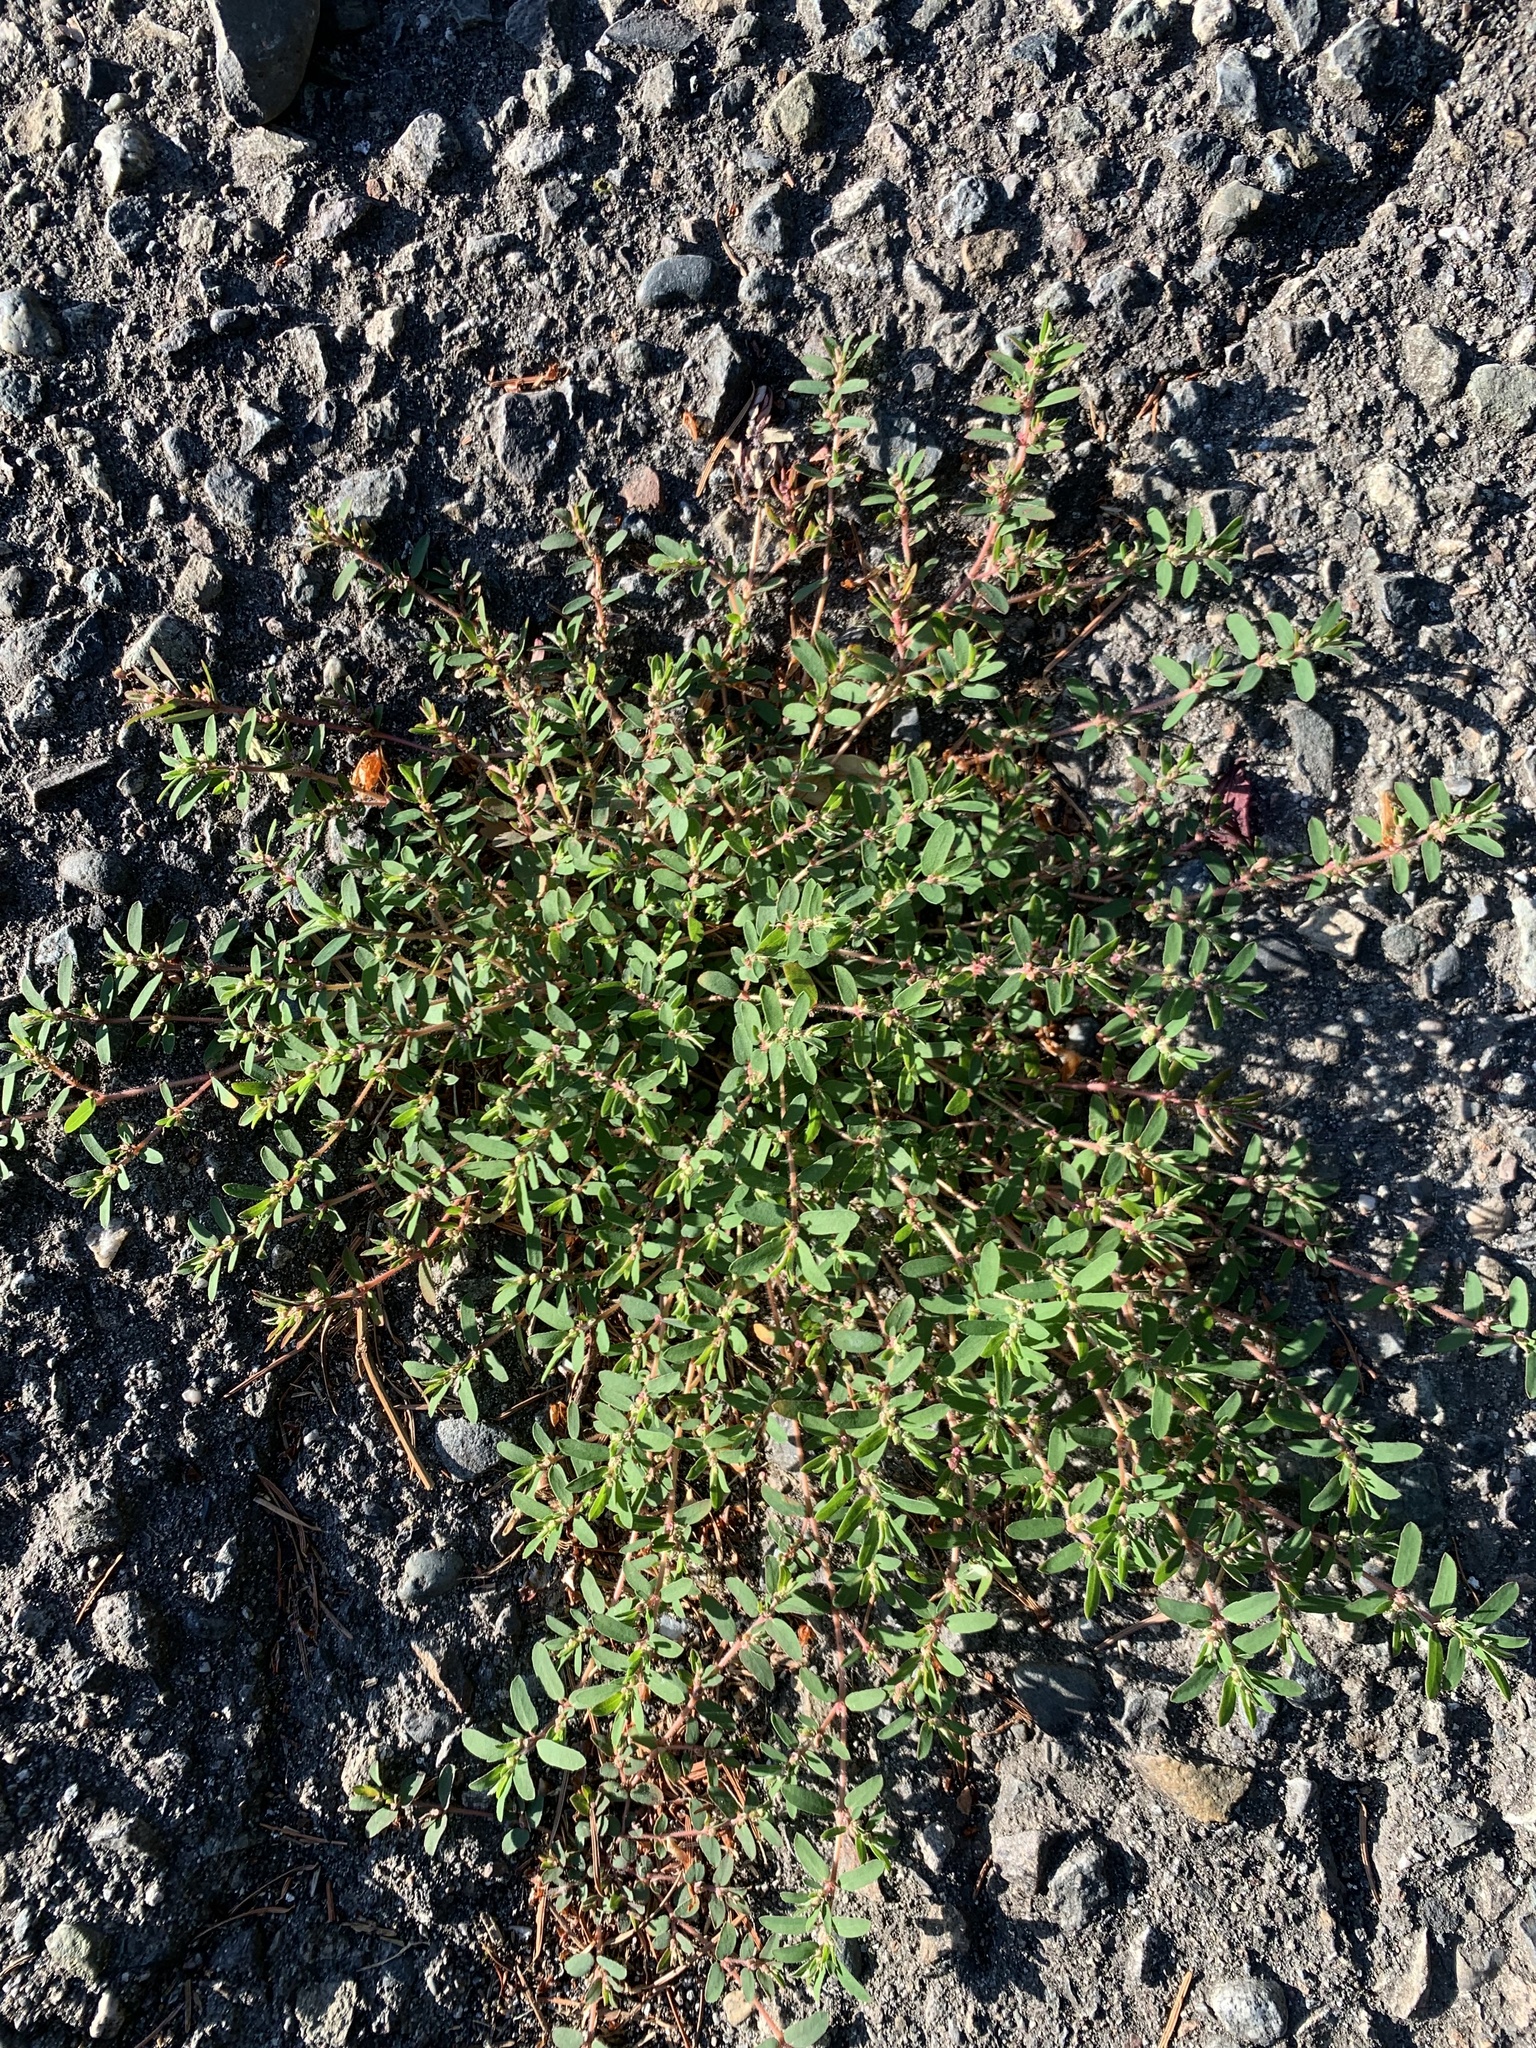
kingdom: Plantae
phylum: Tracheophyta
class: Magnoliopsida
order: Malpighiales
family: Euphorbiaceae
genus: Euphorbia
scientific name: Euphorbia maculata
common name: Spotted spurge
